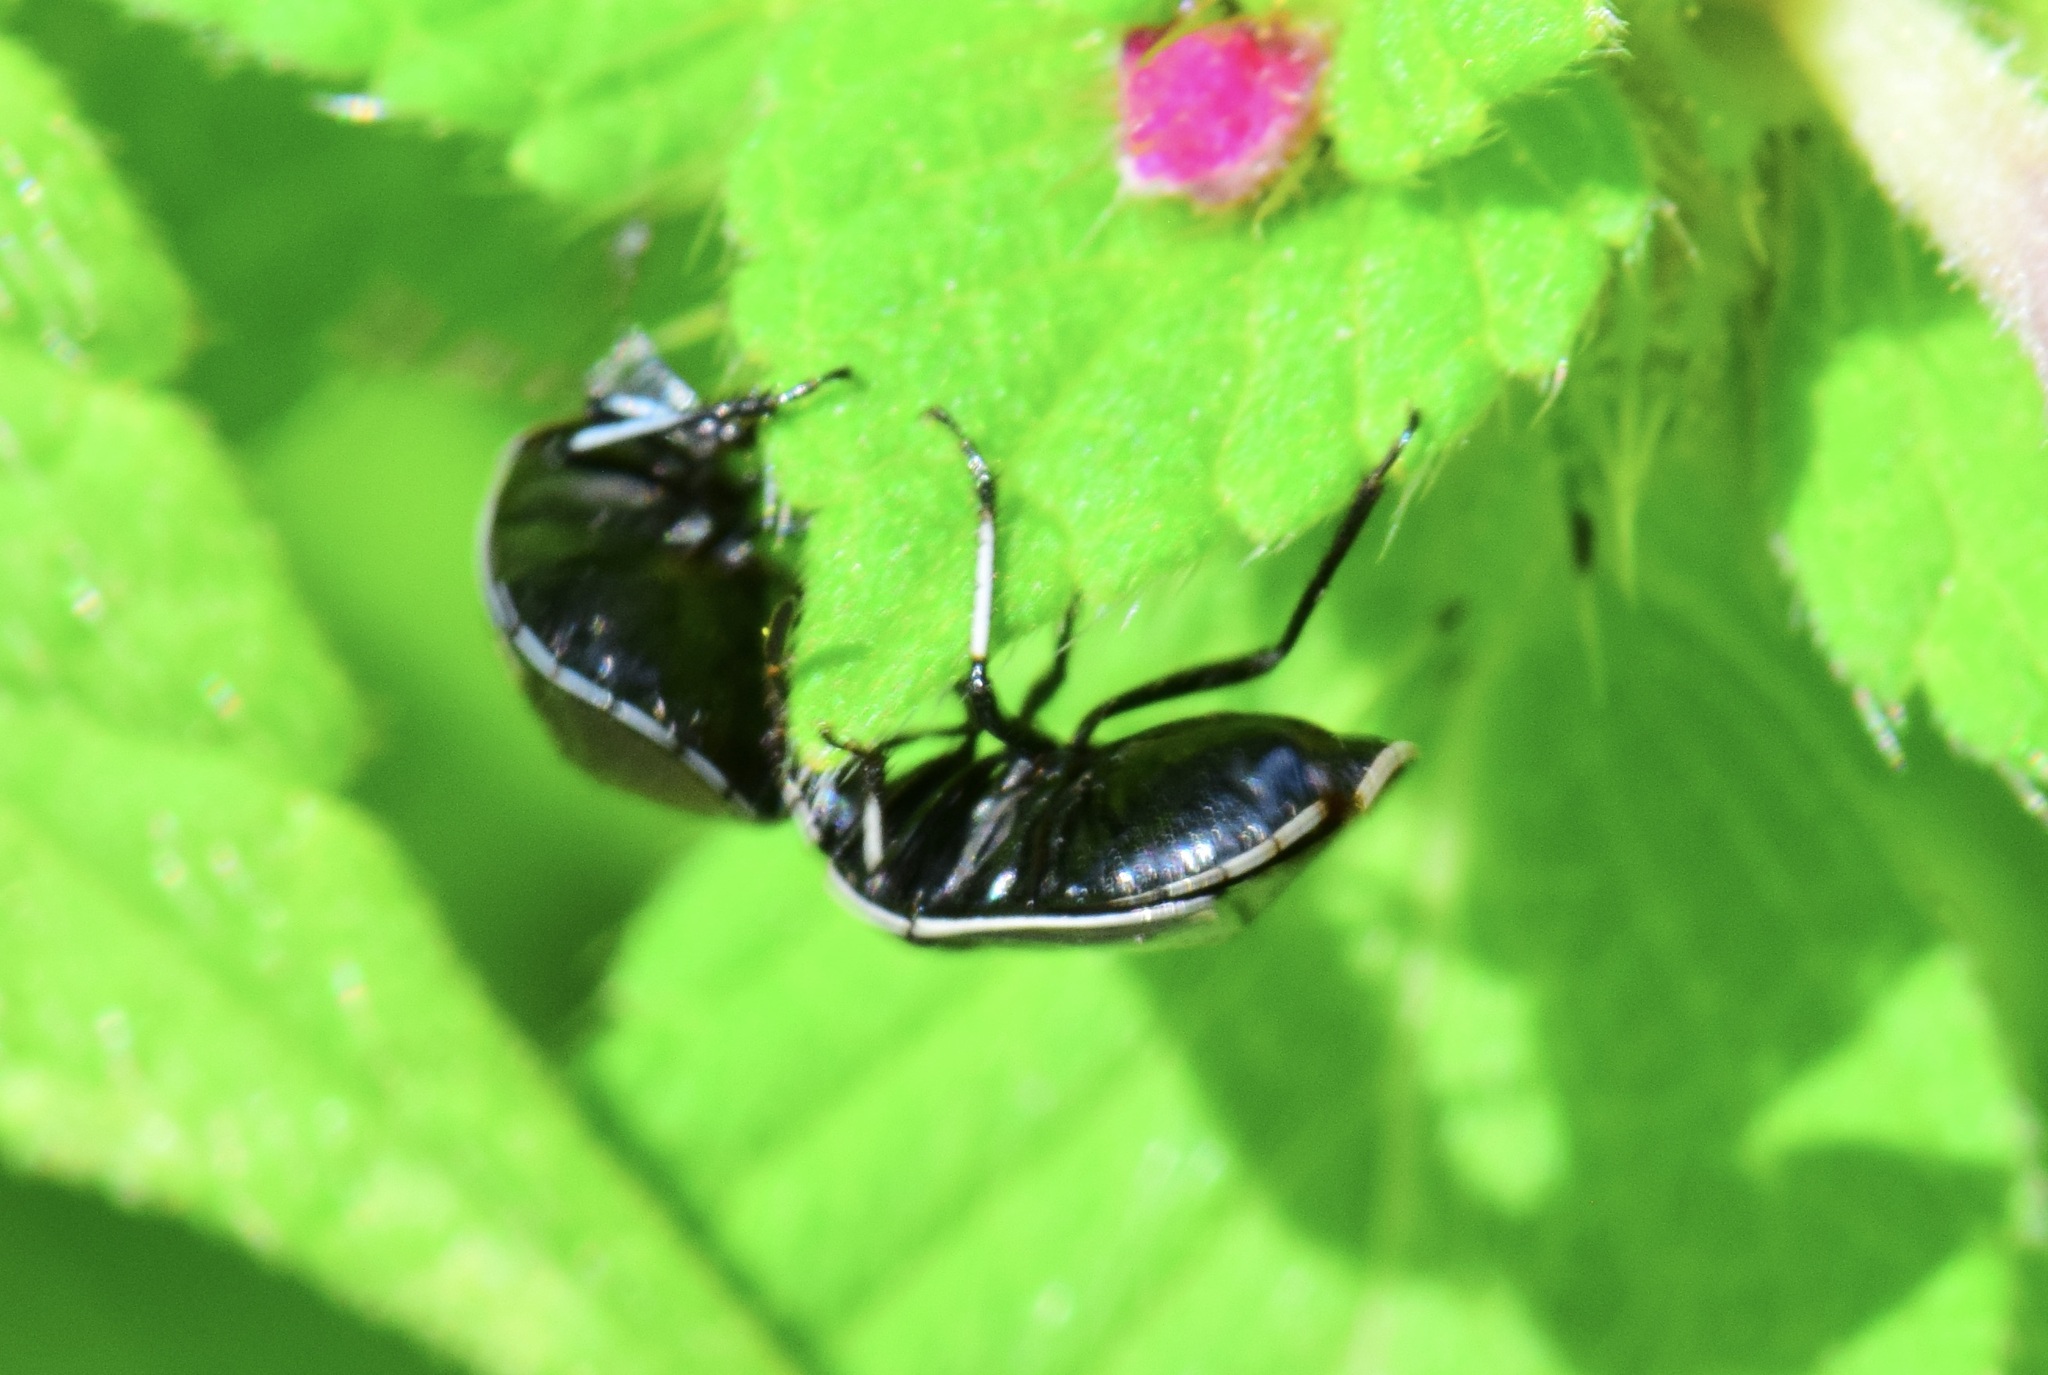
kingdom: Animalia
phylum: Arthropoda
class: Insecta
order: Hemiptera
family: Cydnidae
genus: Sehirus
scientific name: Sehirus cinctus
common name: White-margined burrower bug
